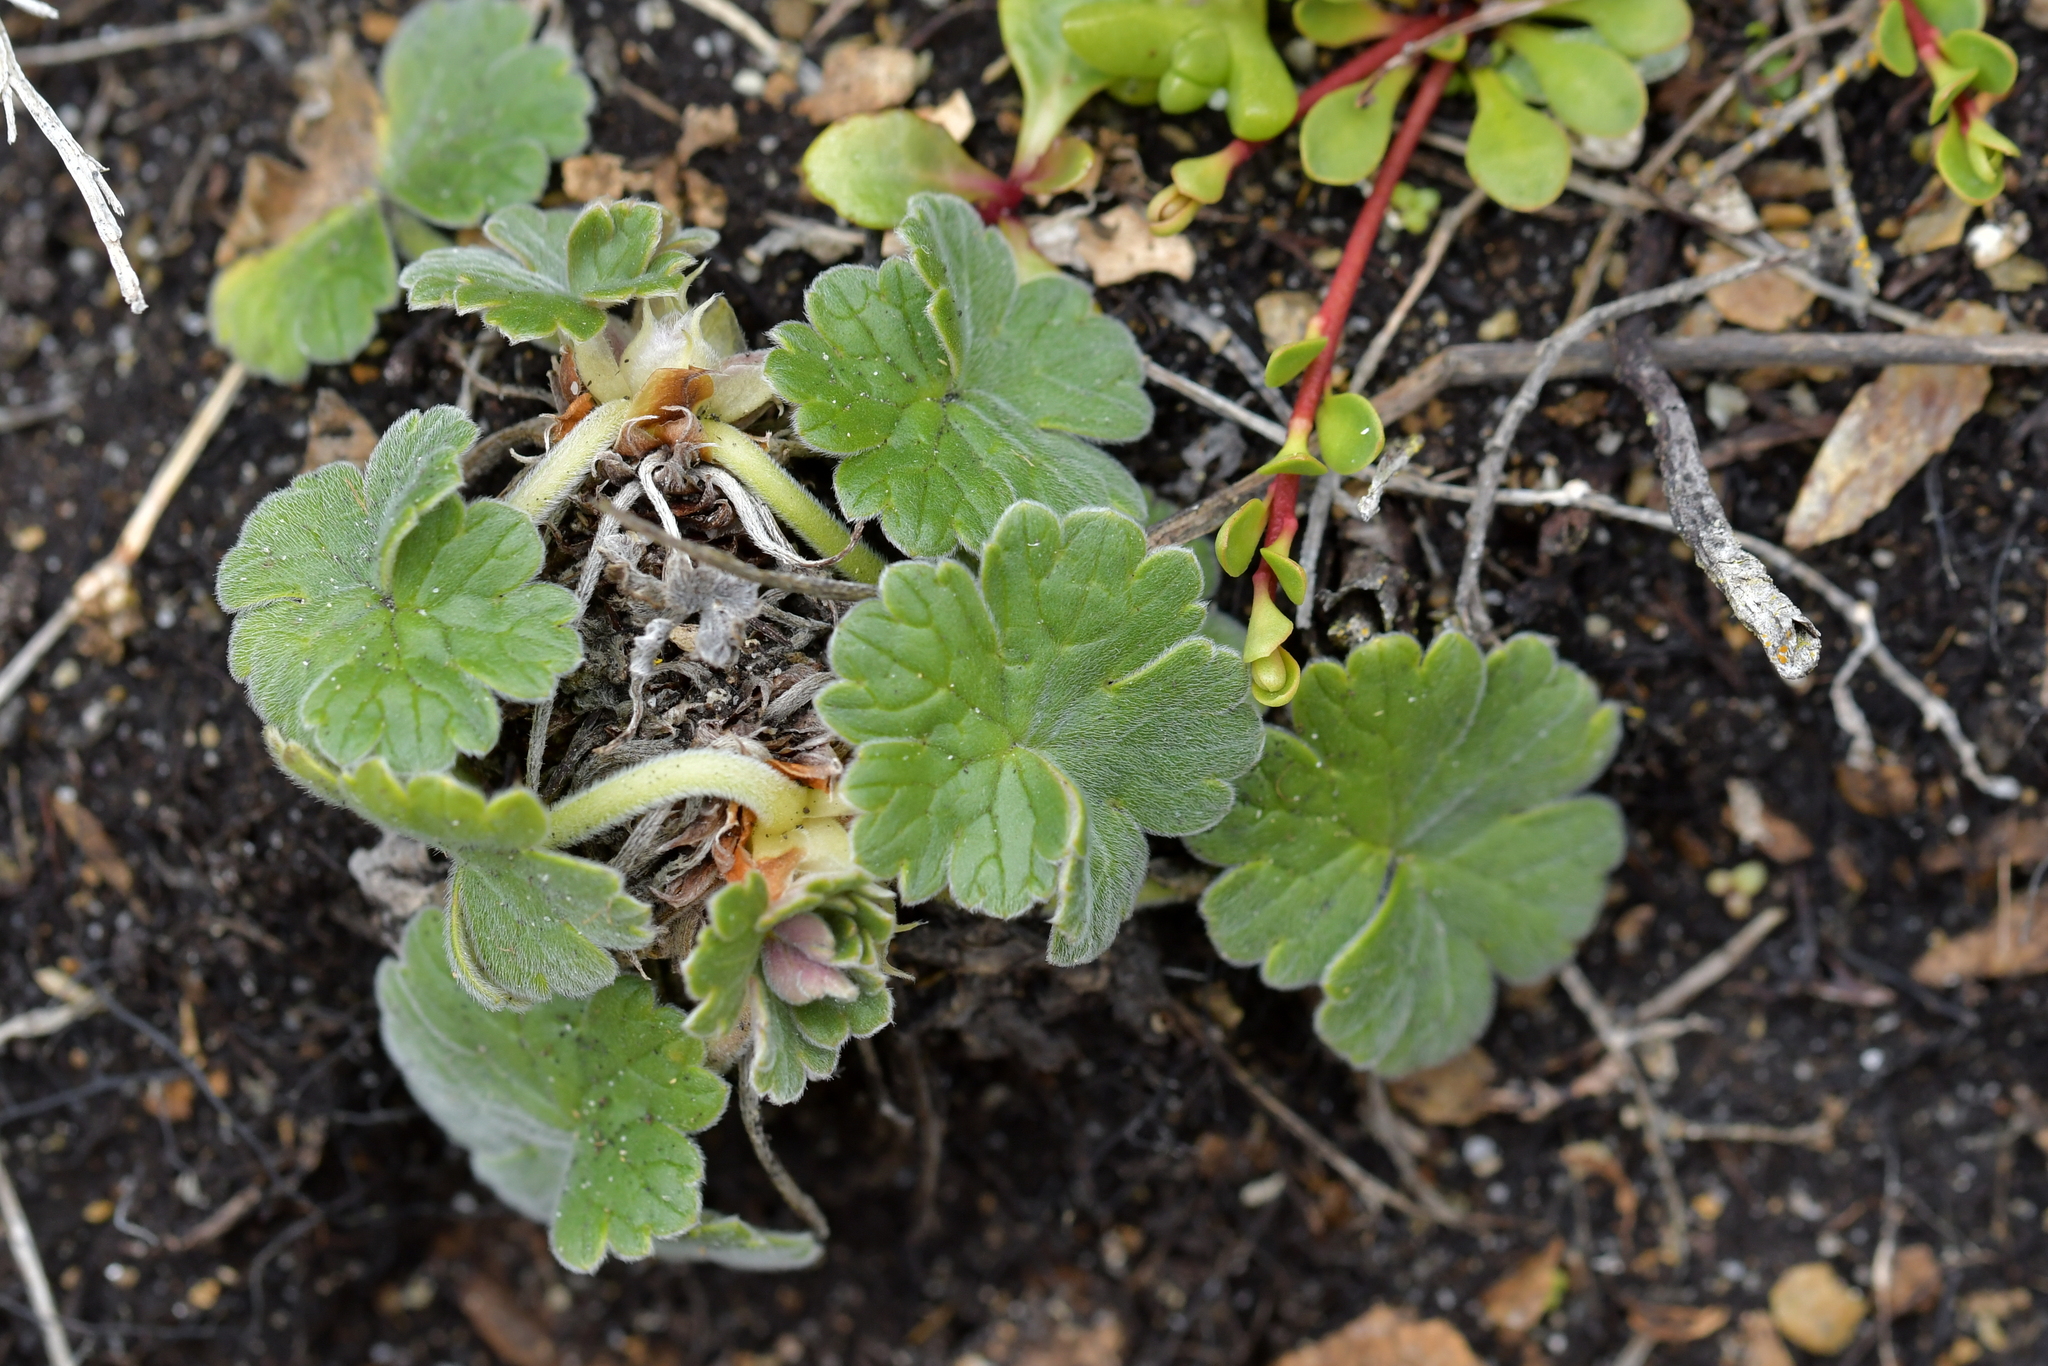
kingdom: Plantae
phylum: Tracheophyta
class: Magnoliopsida
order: Geraniales
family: Geraniaceae
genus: Geranium
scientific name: Geranium traversii
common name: Cranesbill
